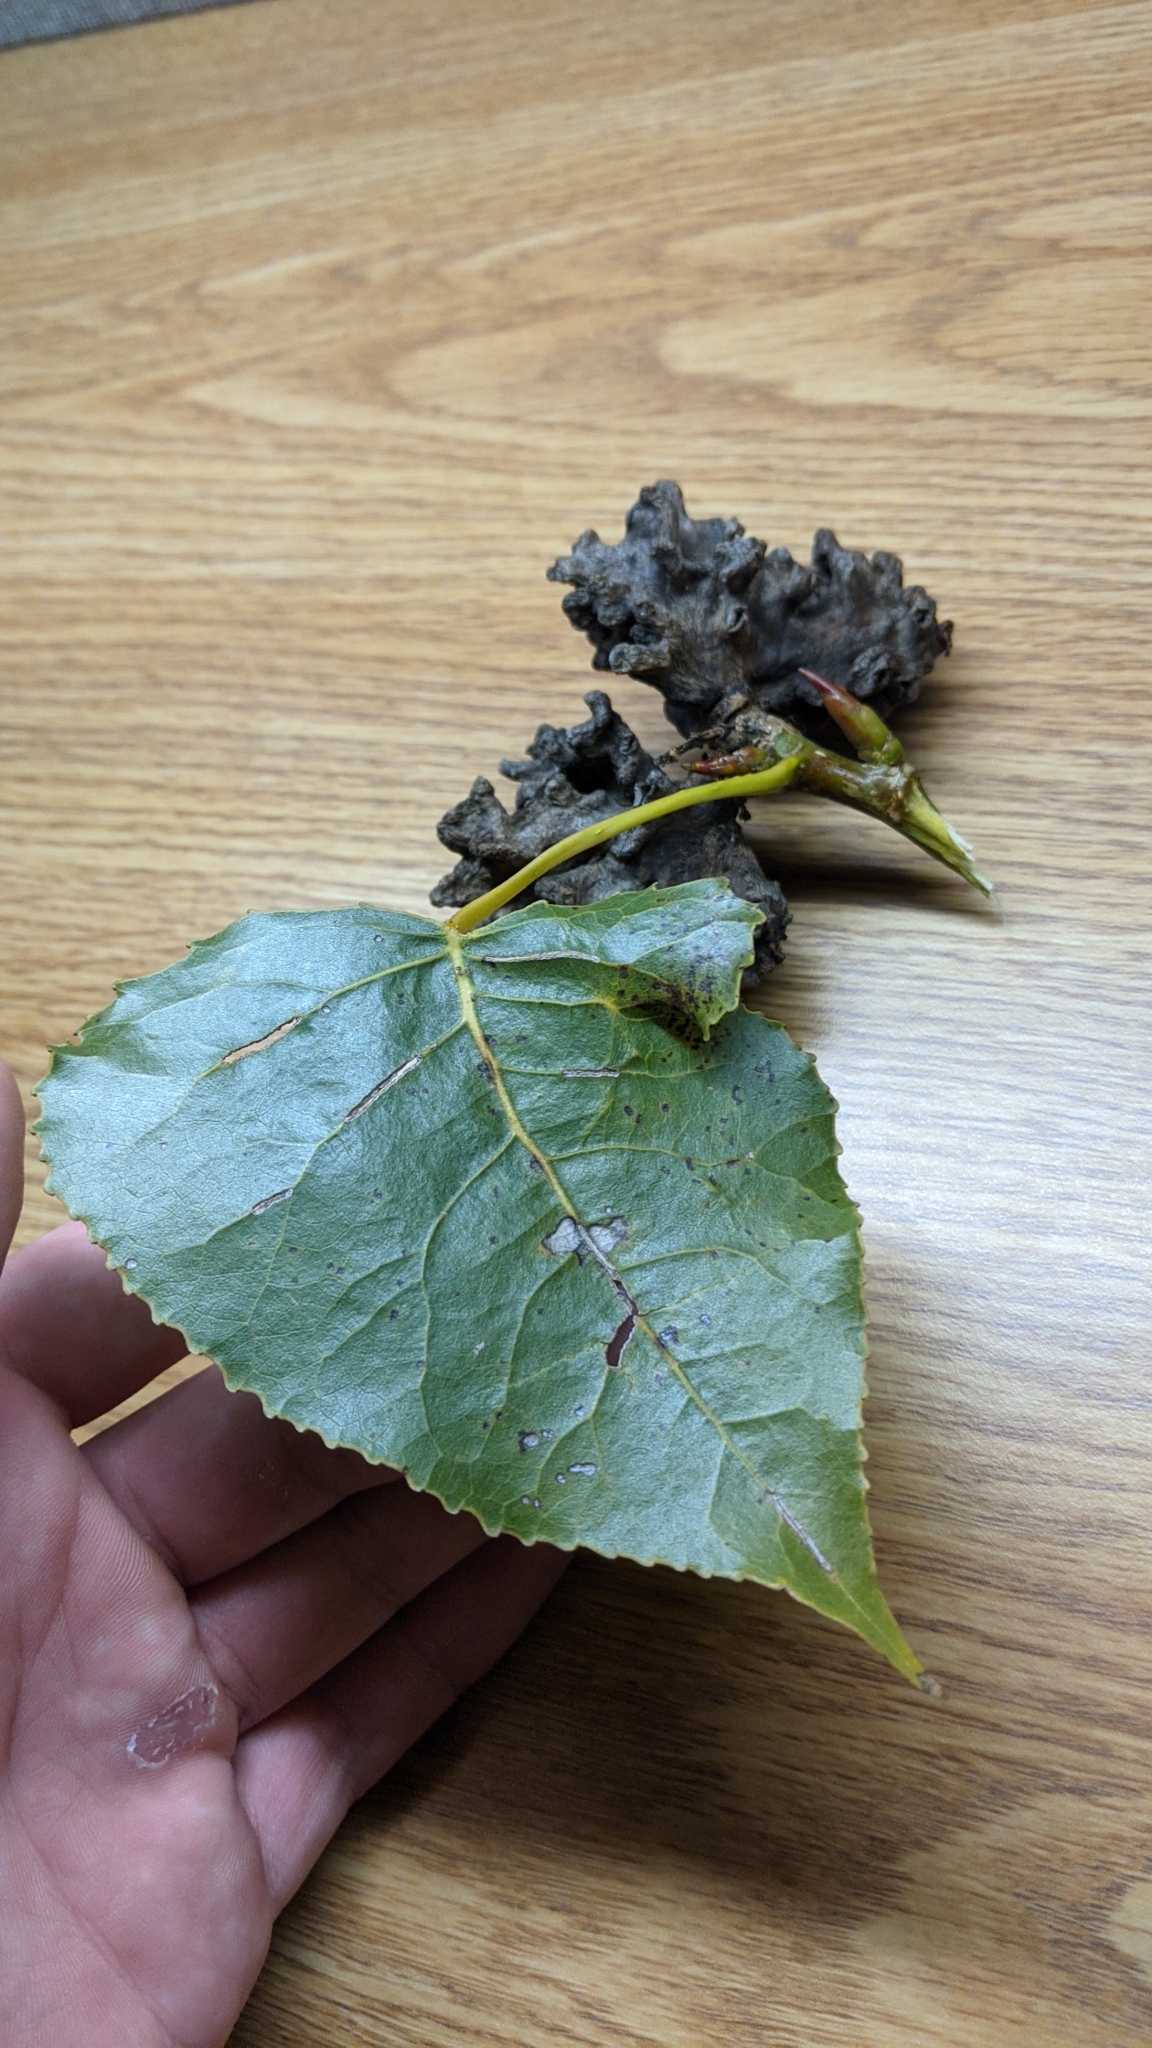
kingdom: Animalia
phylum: Arthropoda
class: Insecta
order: Hemiptera
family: Aphididae
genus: Mordwilkoja
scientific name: Mordwilkoja vagabunda
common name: Poplar vagabond aphid
